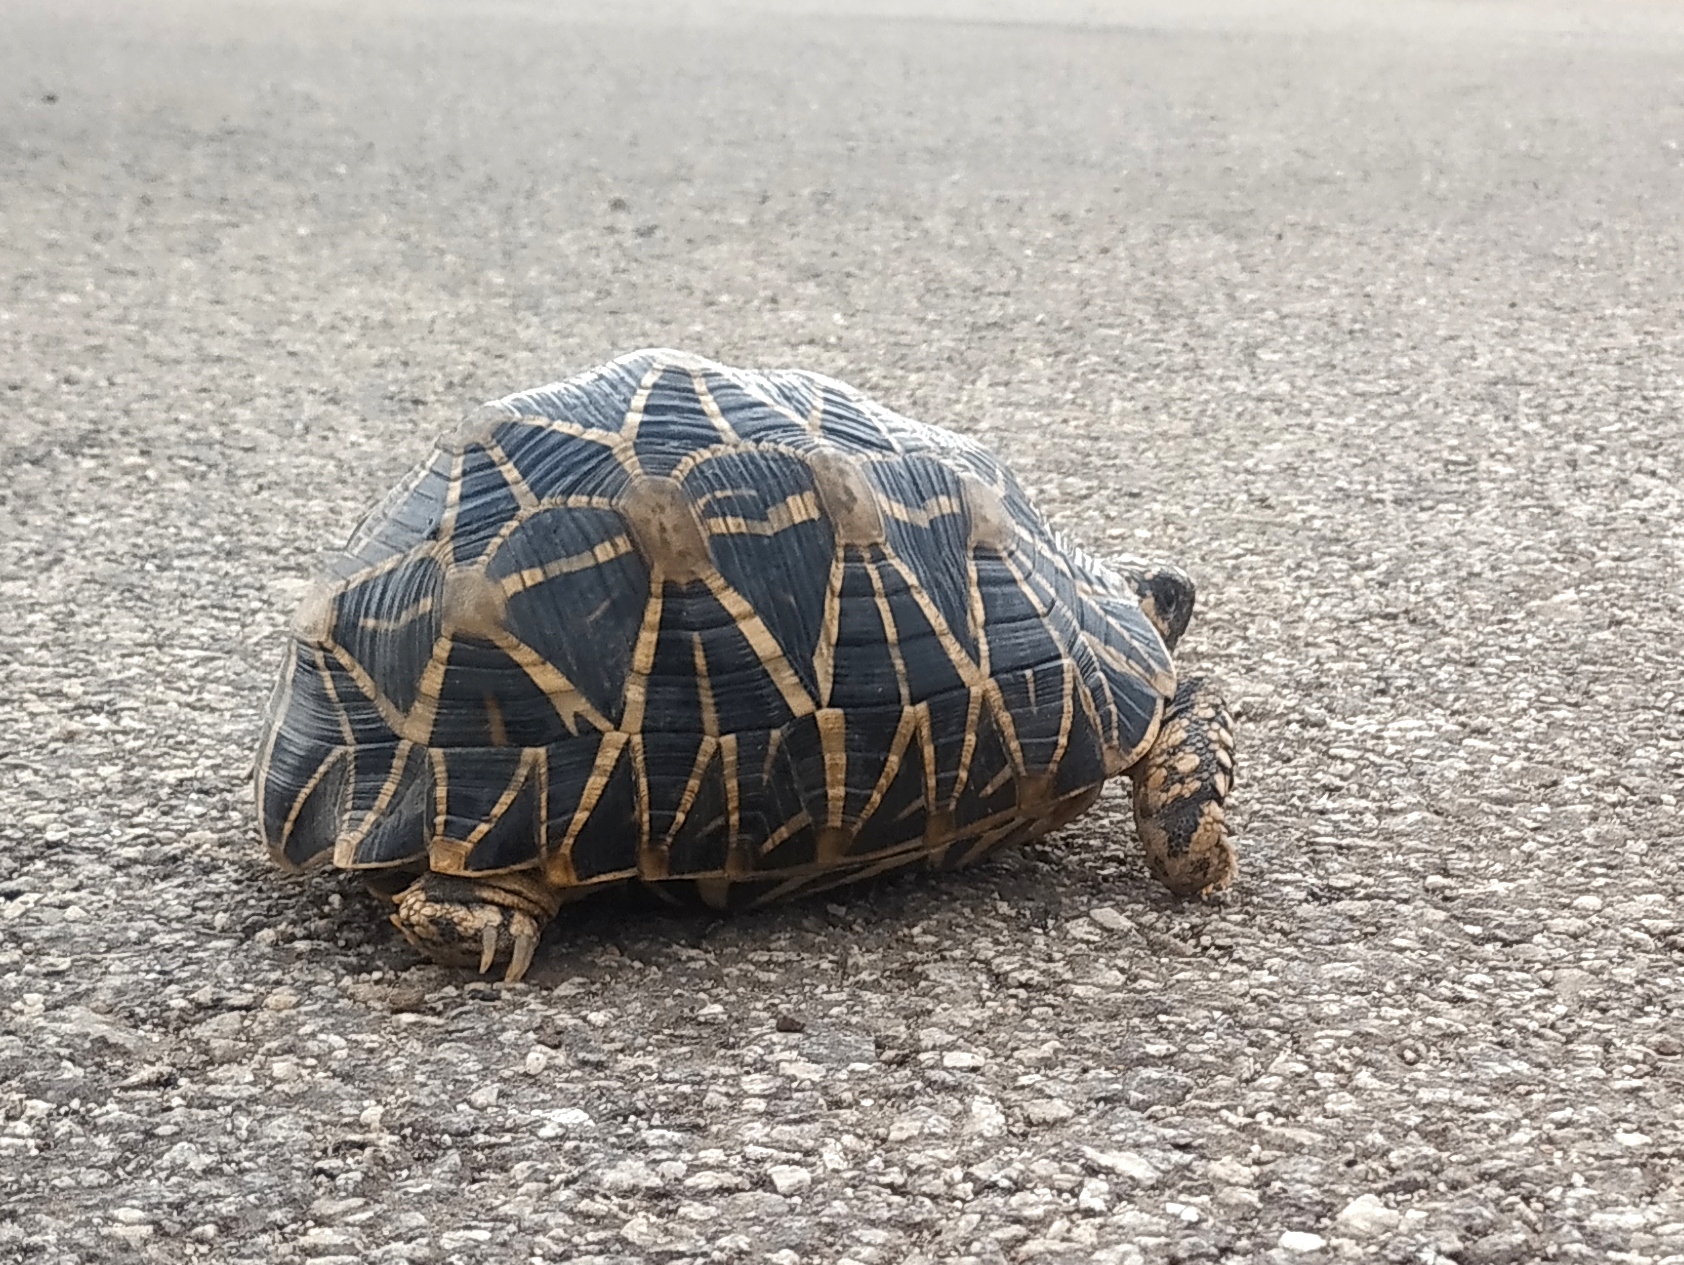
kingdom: Animalia
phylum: Chordata
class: Testudines
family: Testudinidae
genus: Geochelone
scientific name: Geochelone elegans
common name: Indian star tortoise
